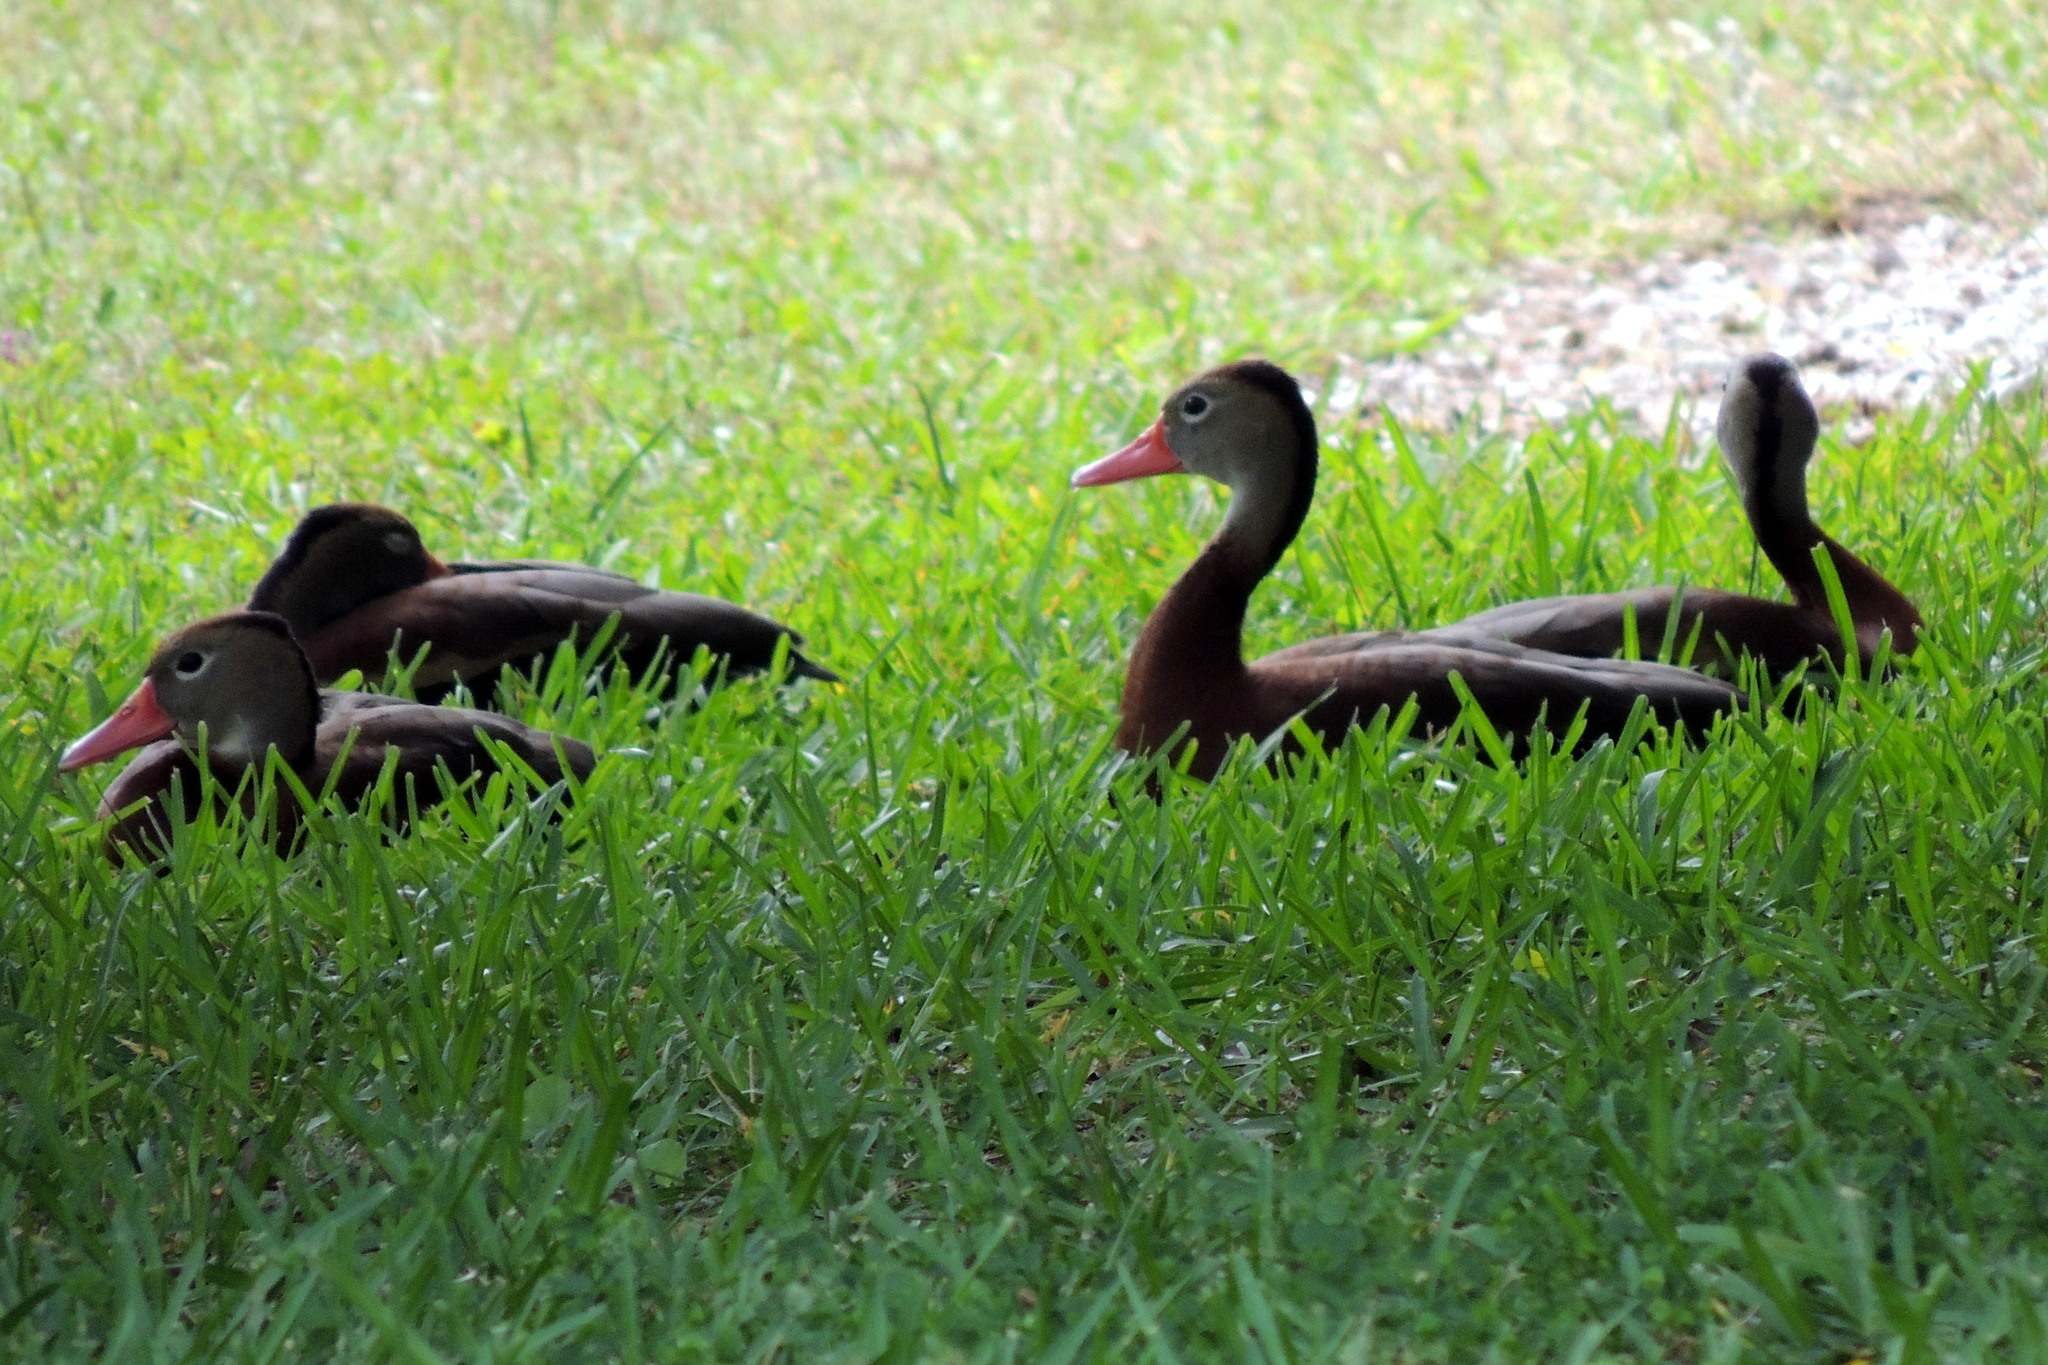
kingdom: Animalia
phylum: Chordata
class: Aves
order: Anseriformes
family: Anatidae
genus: Dendrocygna
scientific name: Dendrocygna autumnalis
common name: Black-bellied whistling duck
